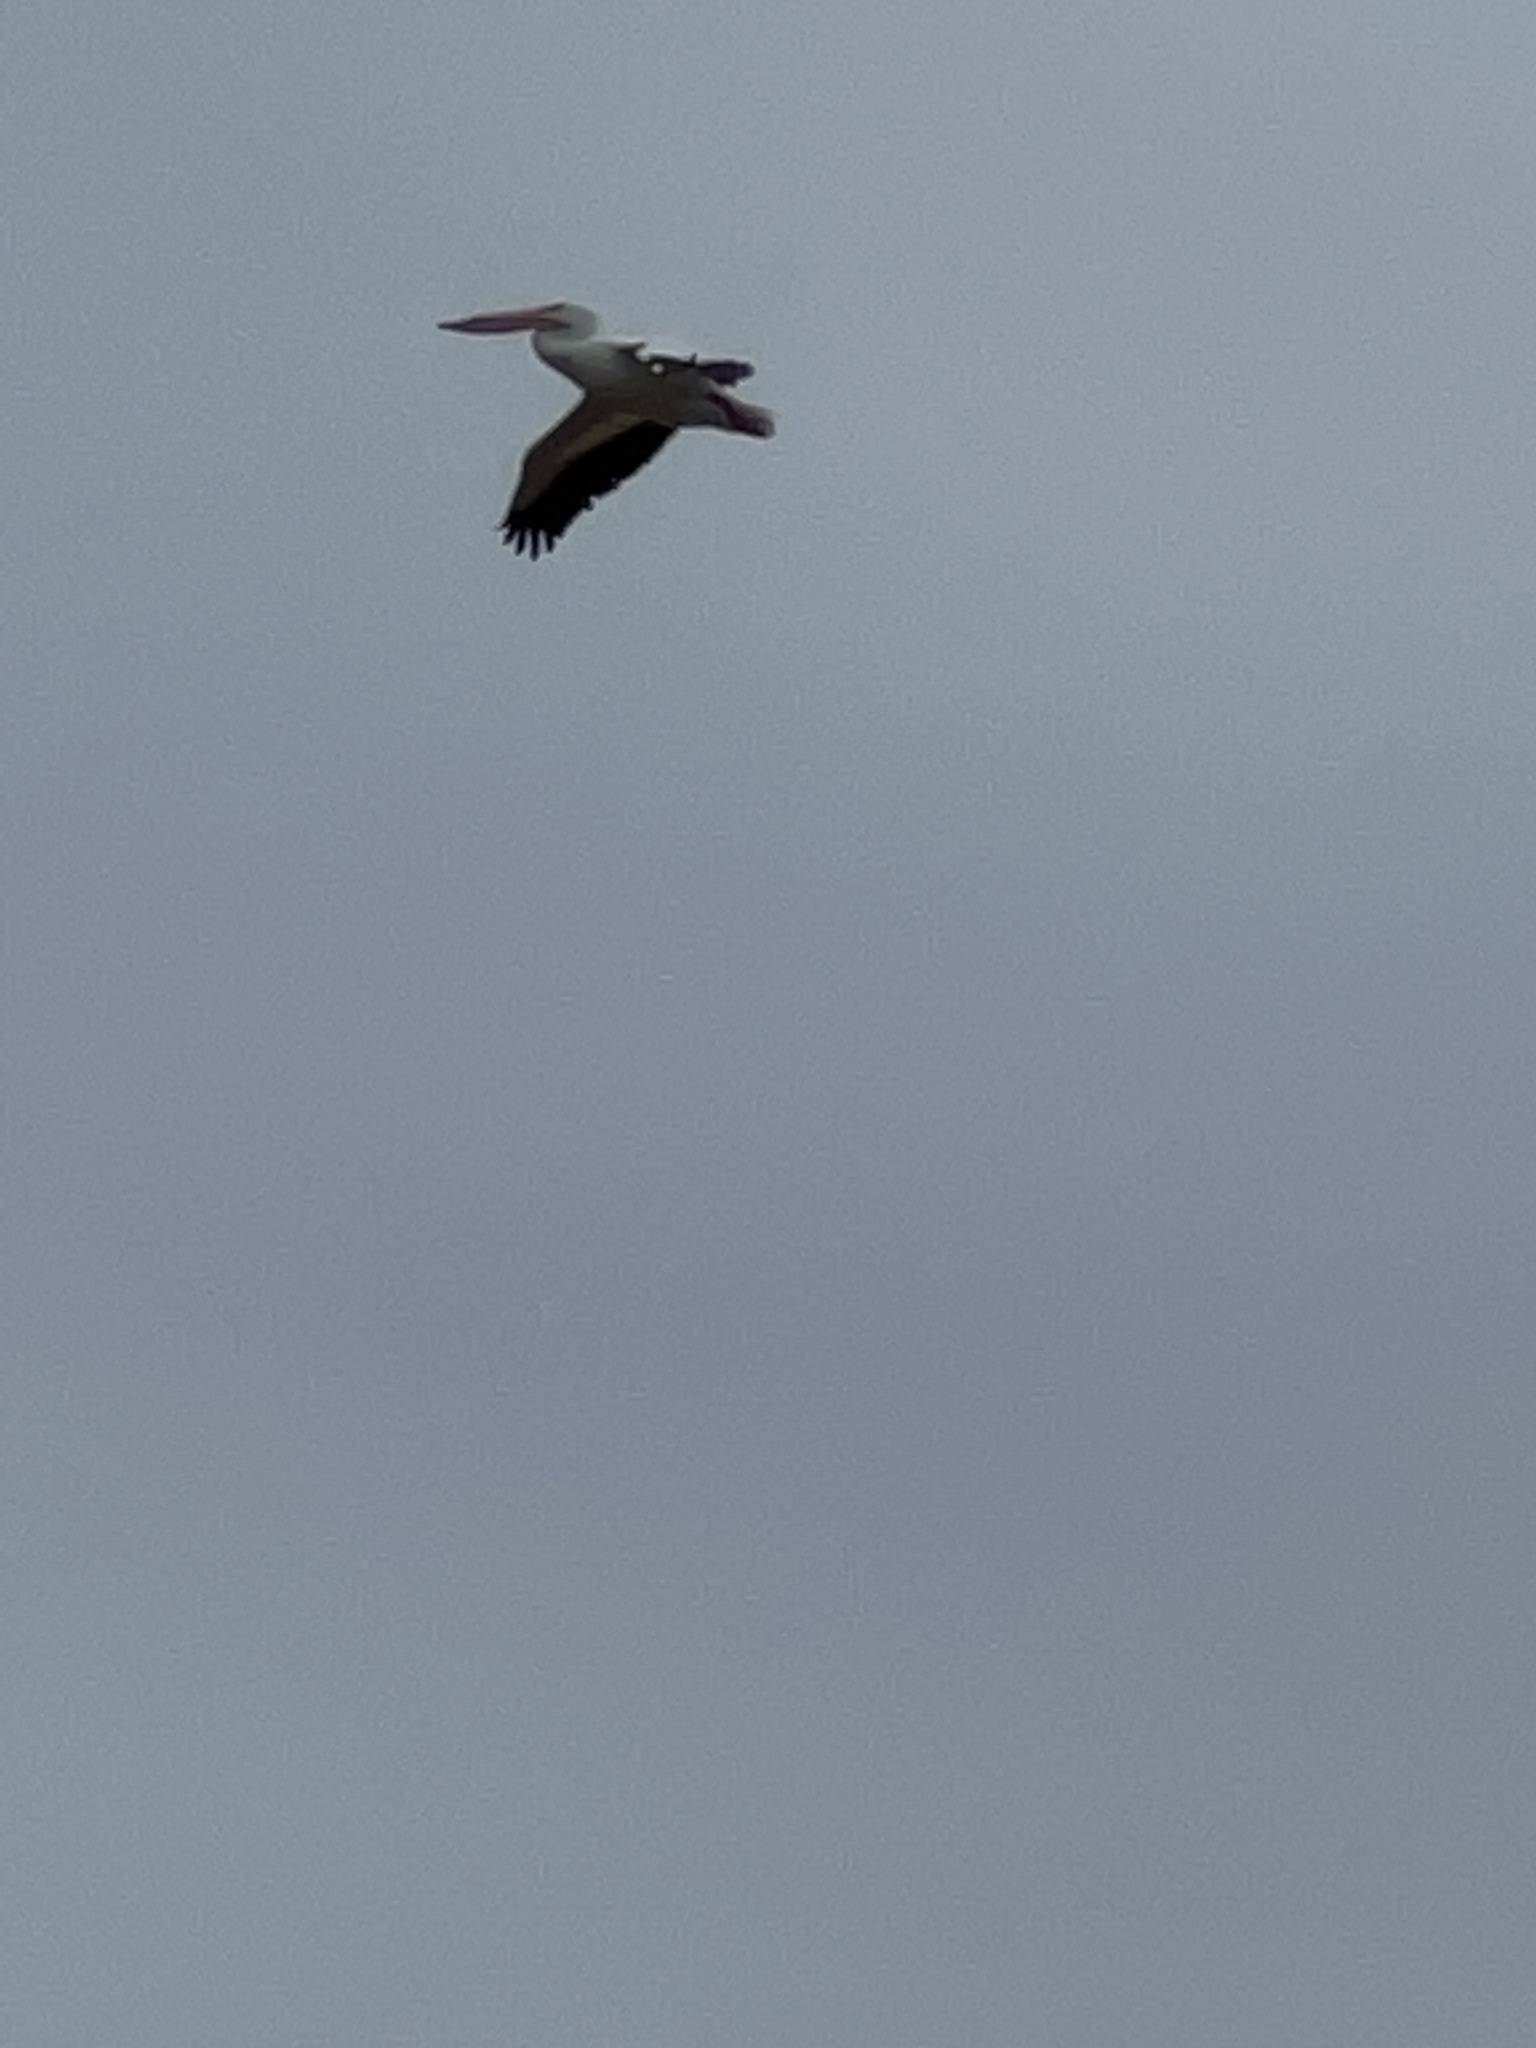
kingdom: Animalia
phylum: Chordata
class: Aves
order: Pelecaniformes
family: Pelecanidae
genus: Pelecanus
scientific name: Pelecanus erythrorhynchos
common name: American white pelican
